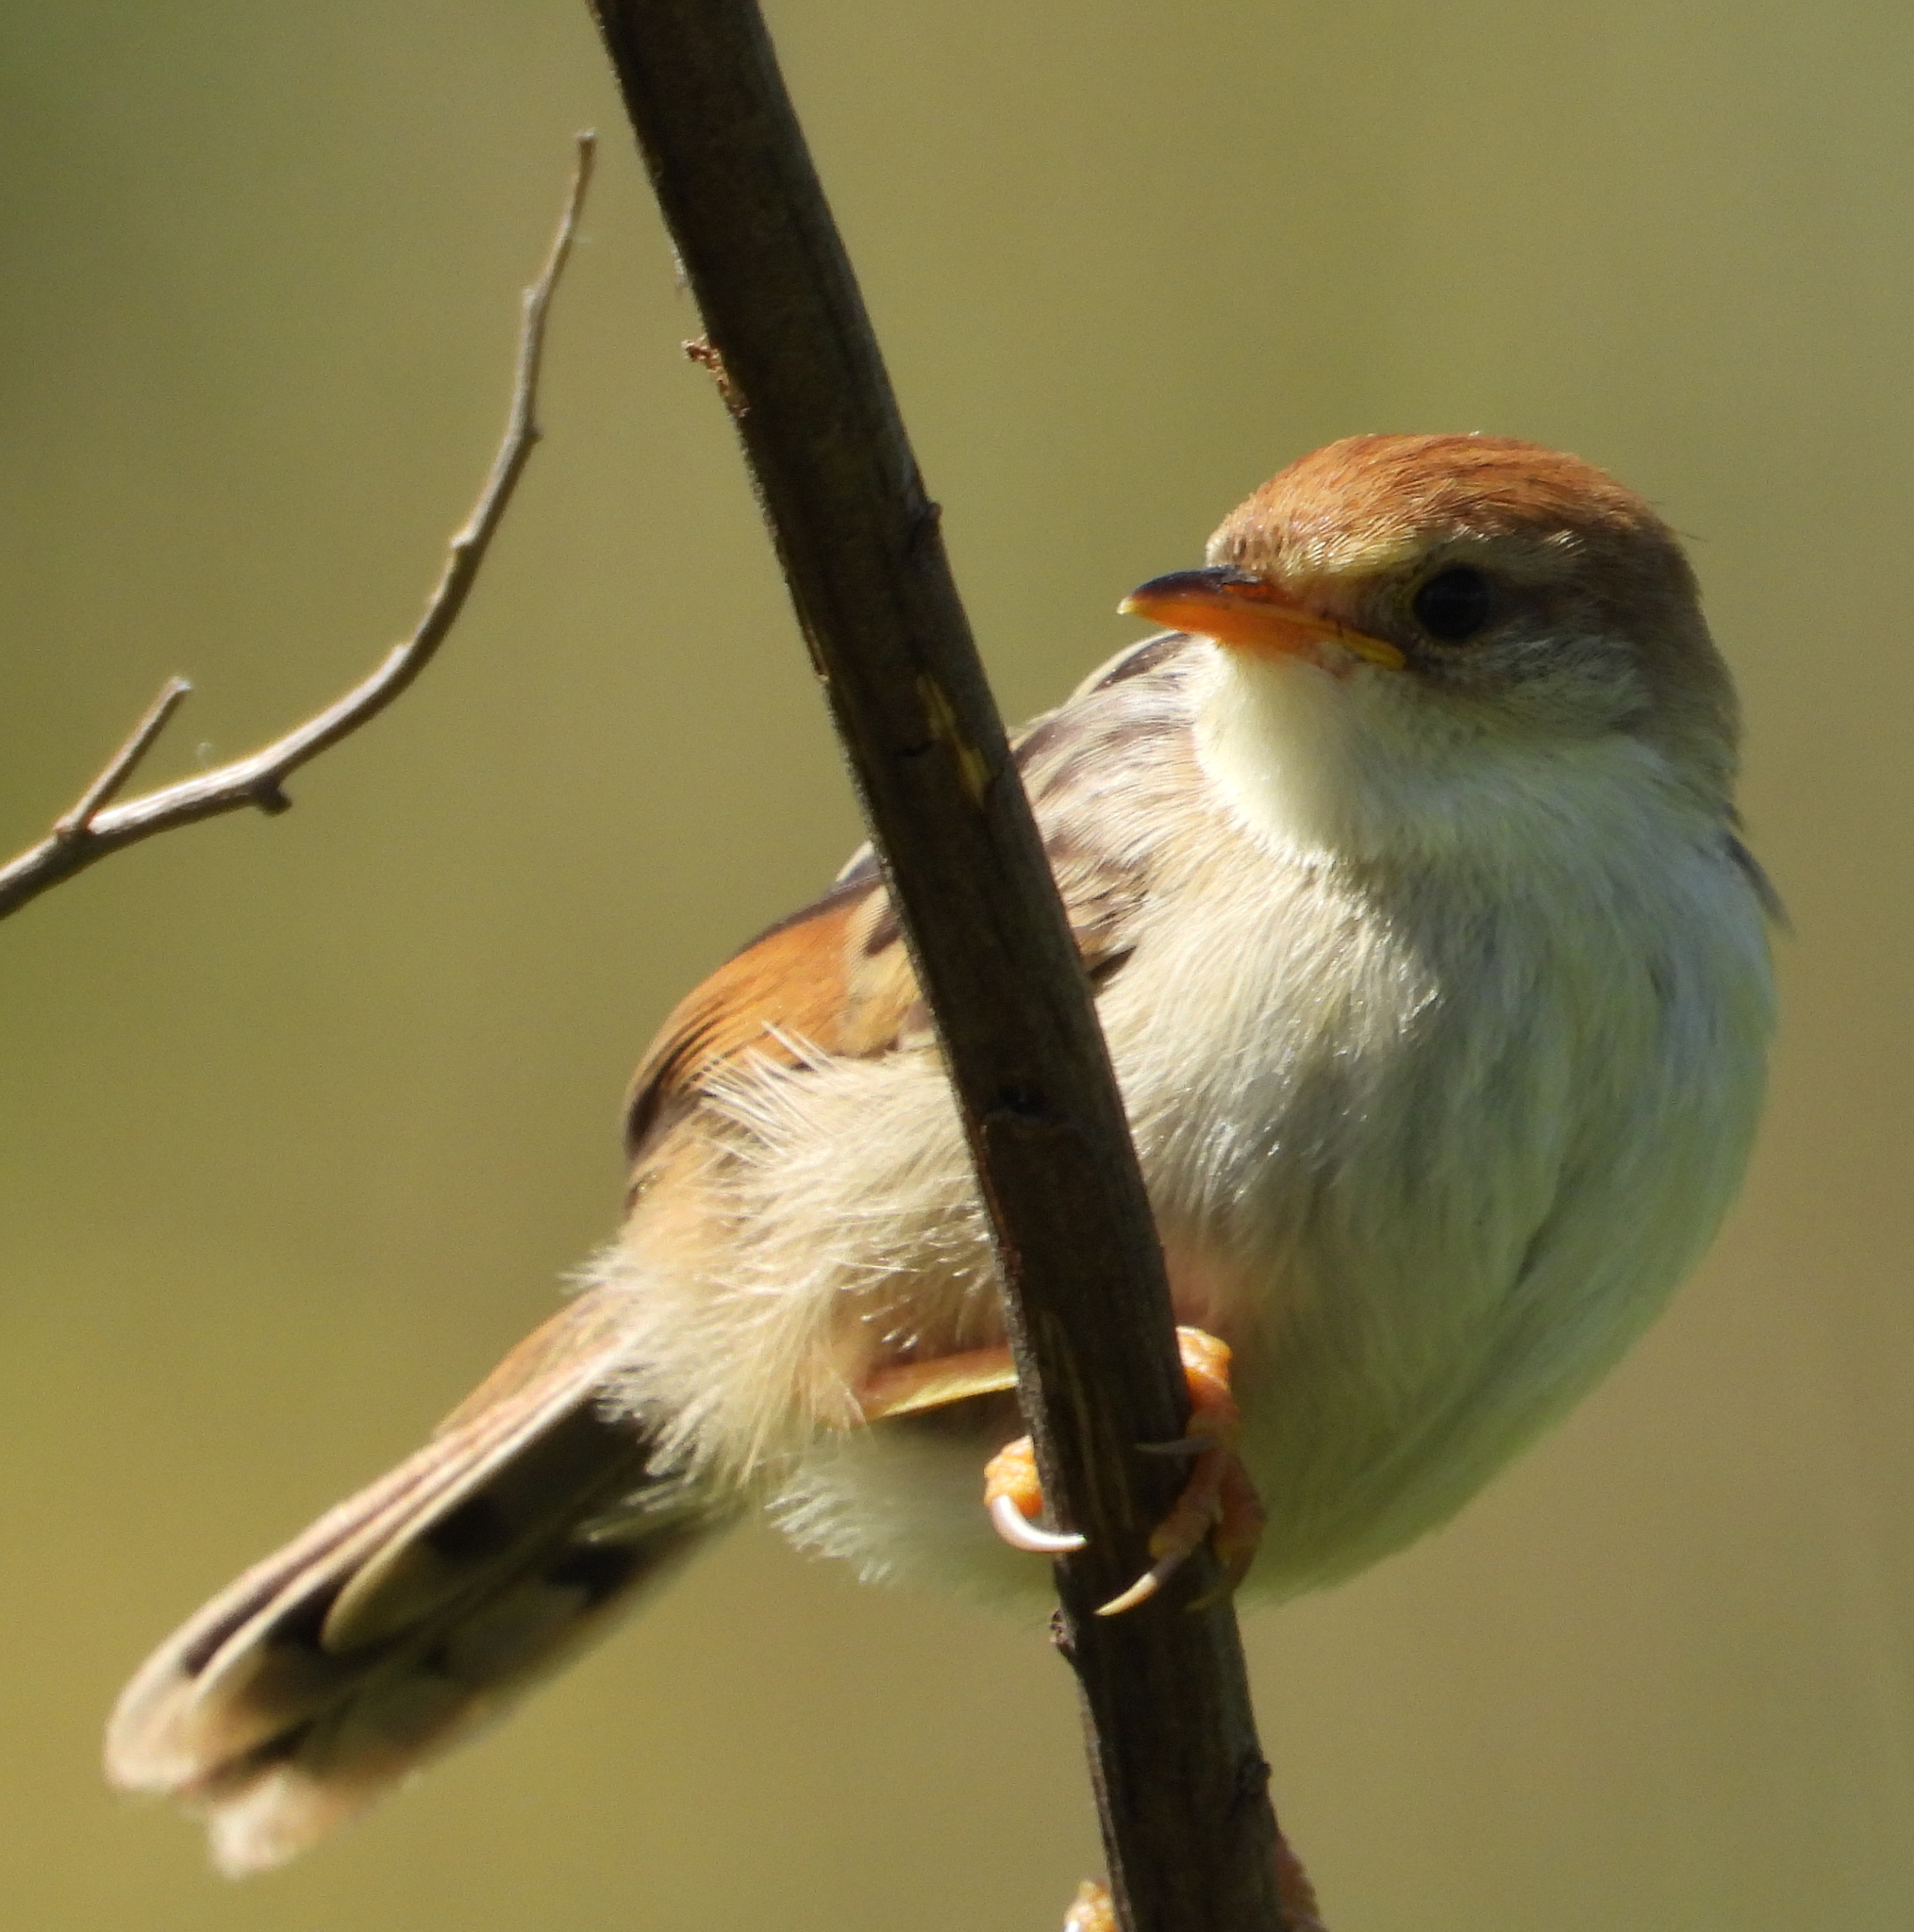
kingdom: Animalia
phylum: Chordata
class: Aves
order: Passeriformes
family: Cisticolidae
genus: Cisticola
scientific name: Cisticola tinniens
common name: Levaillant's cisticola
